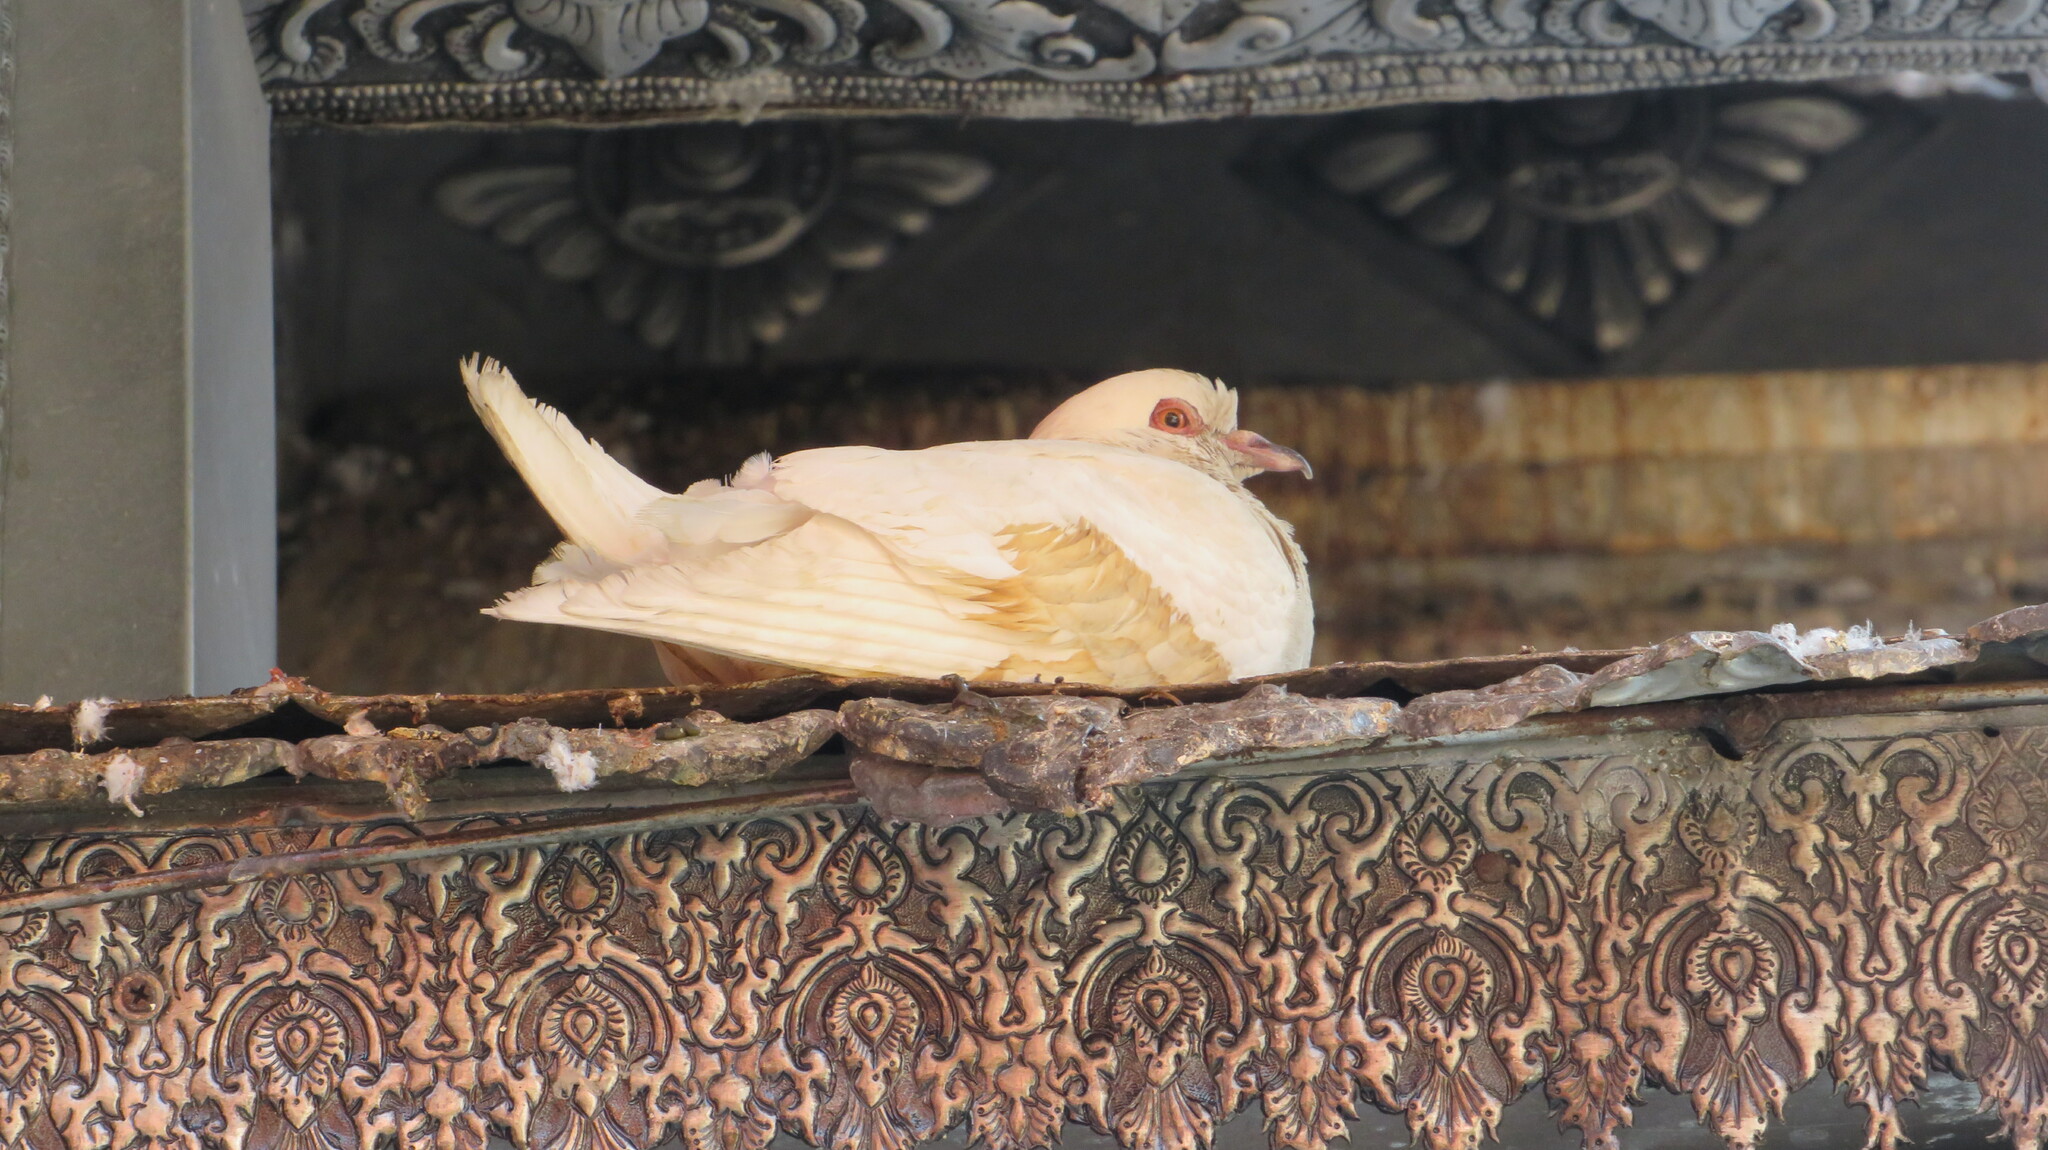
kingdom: Animalia
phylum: Chordata
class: Aves
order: Columbiformes
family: Columbidae
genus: Columba
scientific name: Columba livia
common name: Rock pigeon
